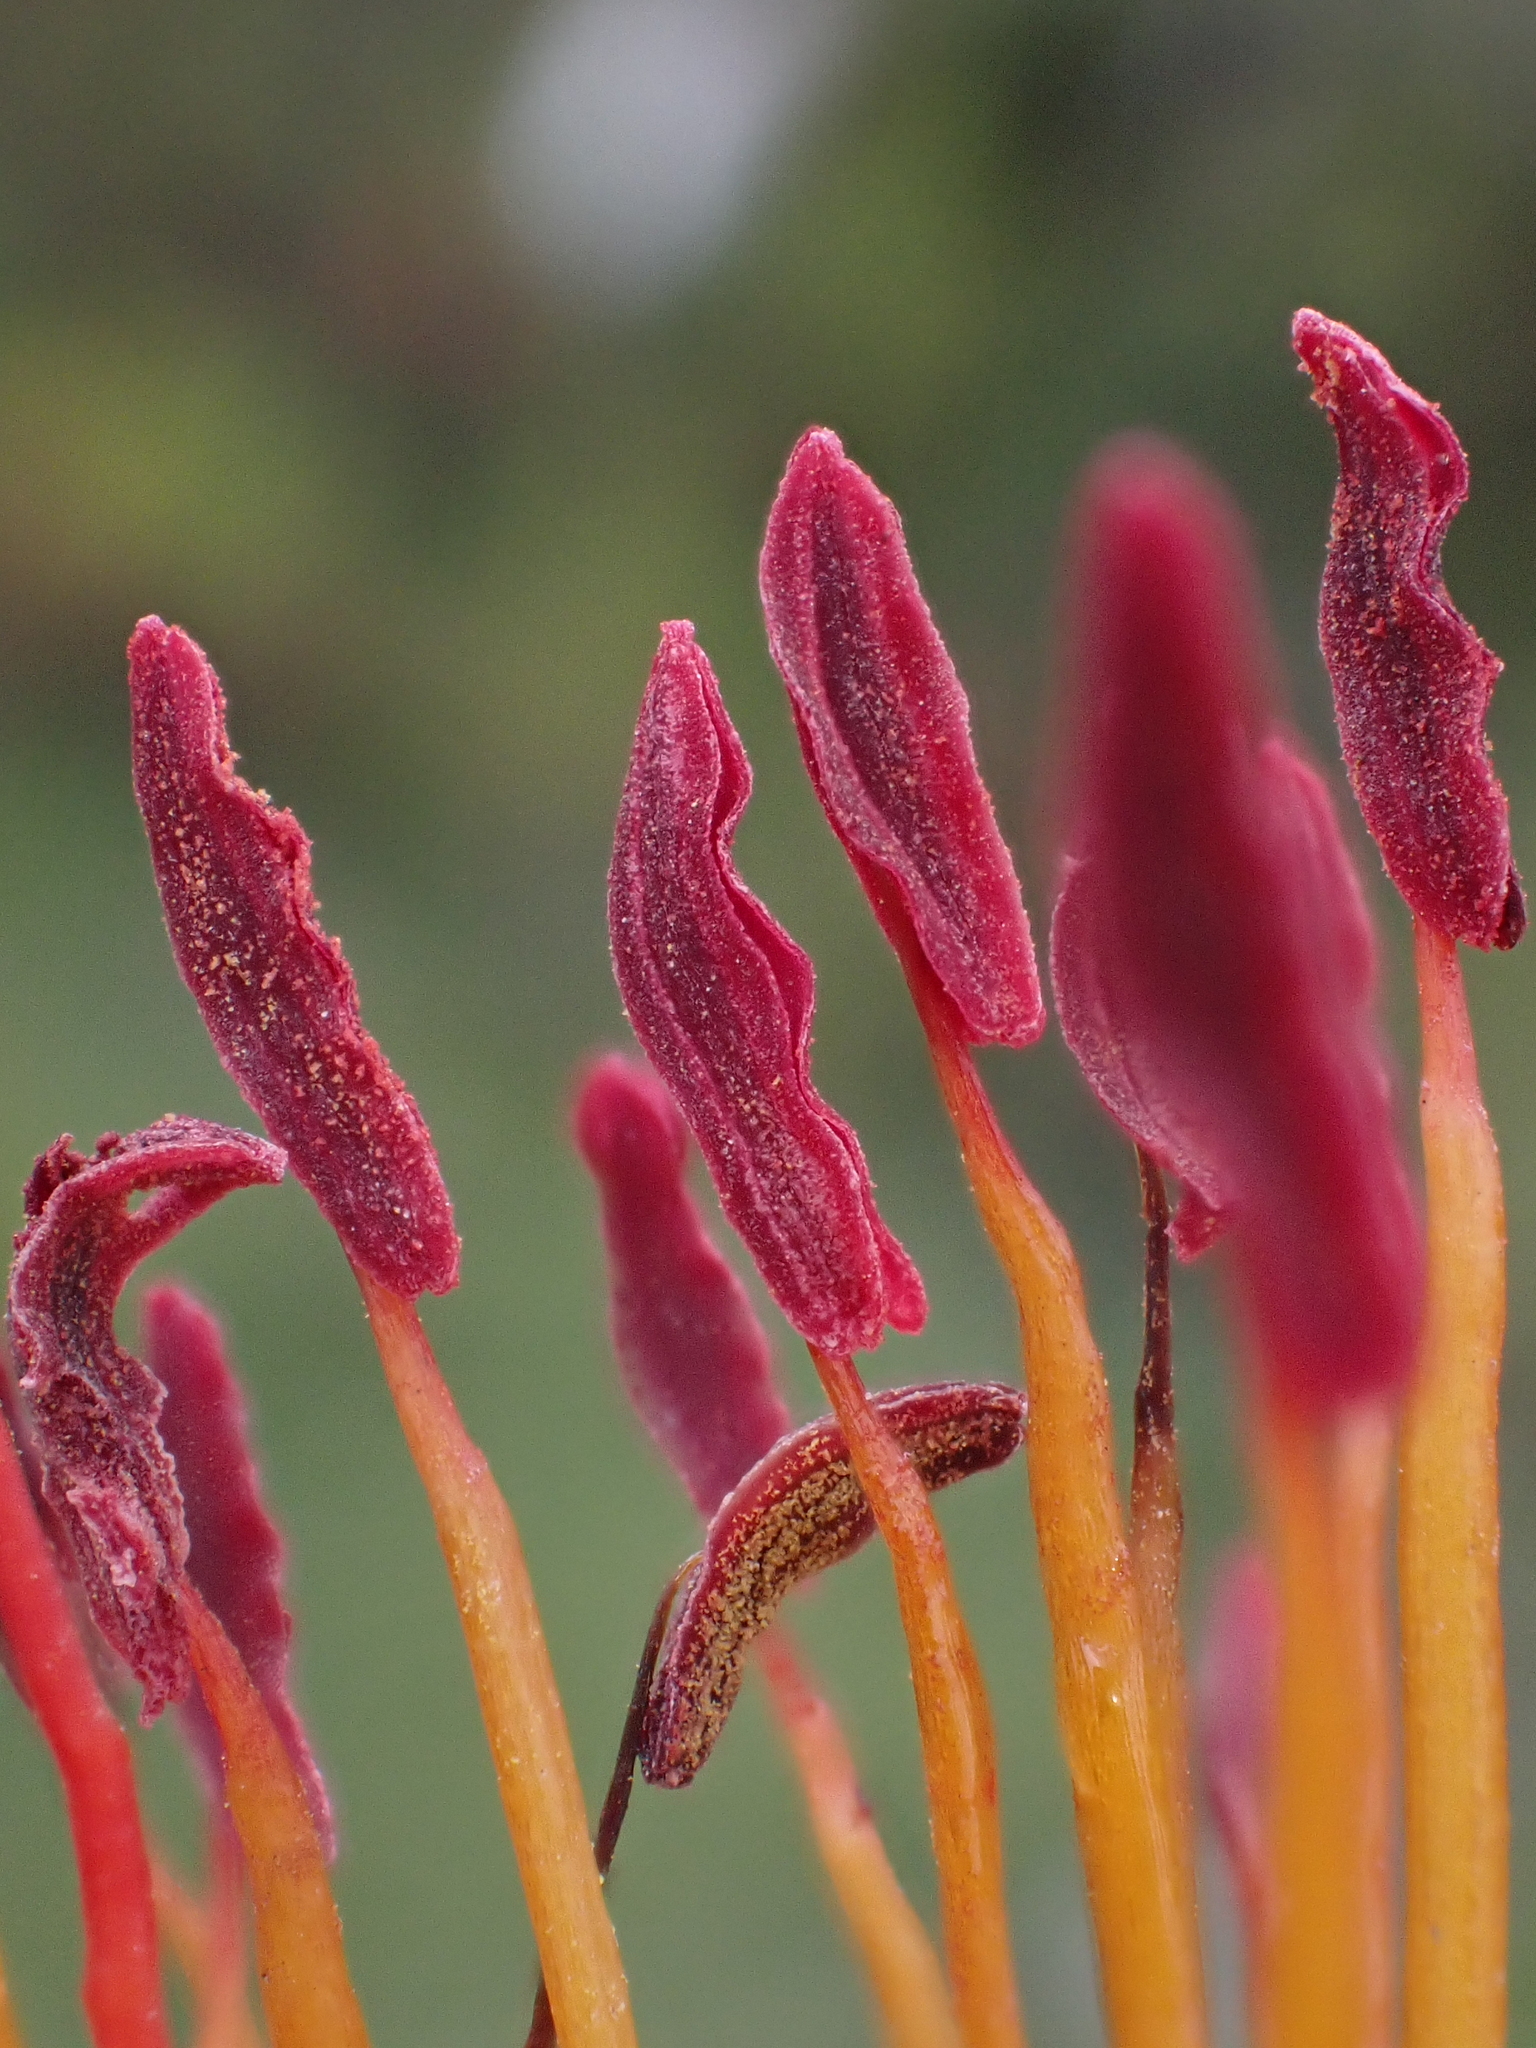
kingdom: Plantae
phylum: Tracheophyta
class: Magnoliopsida
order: Santalales
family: Loranthaceae
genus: Tristerix
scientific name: Tristerix longibracteatus
